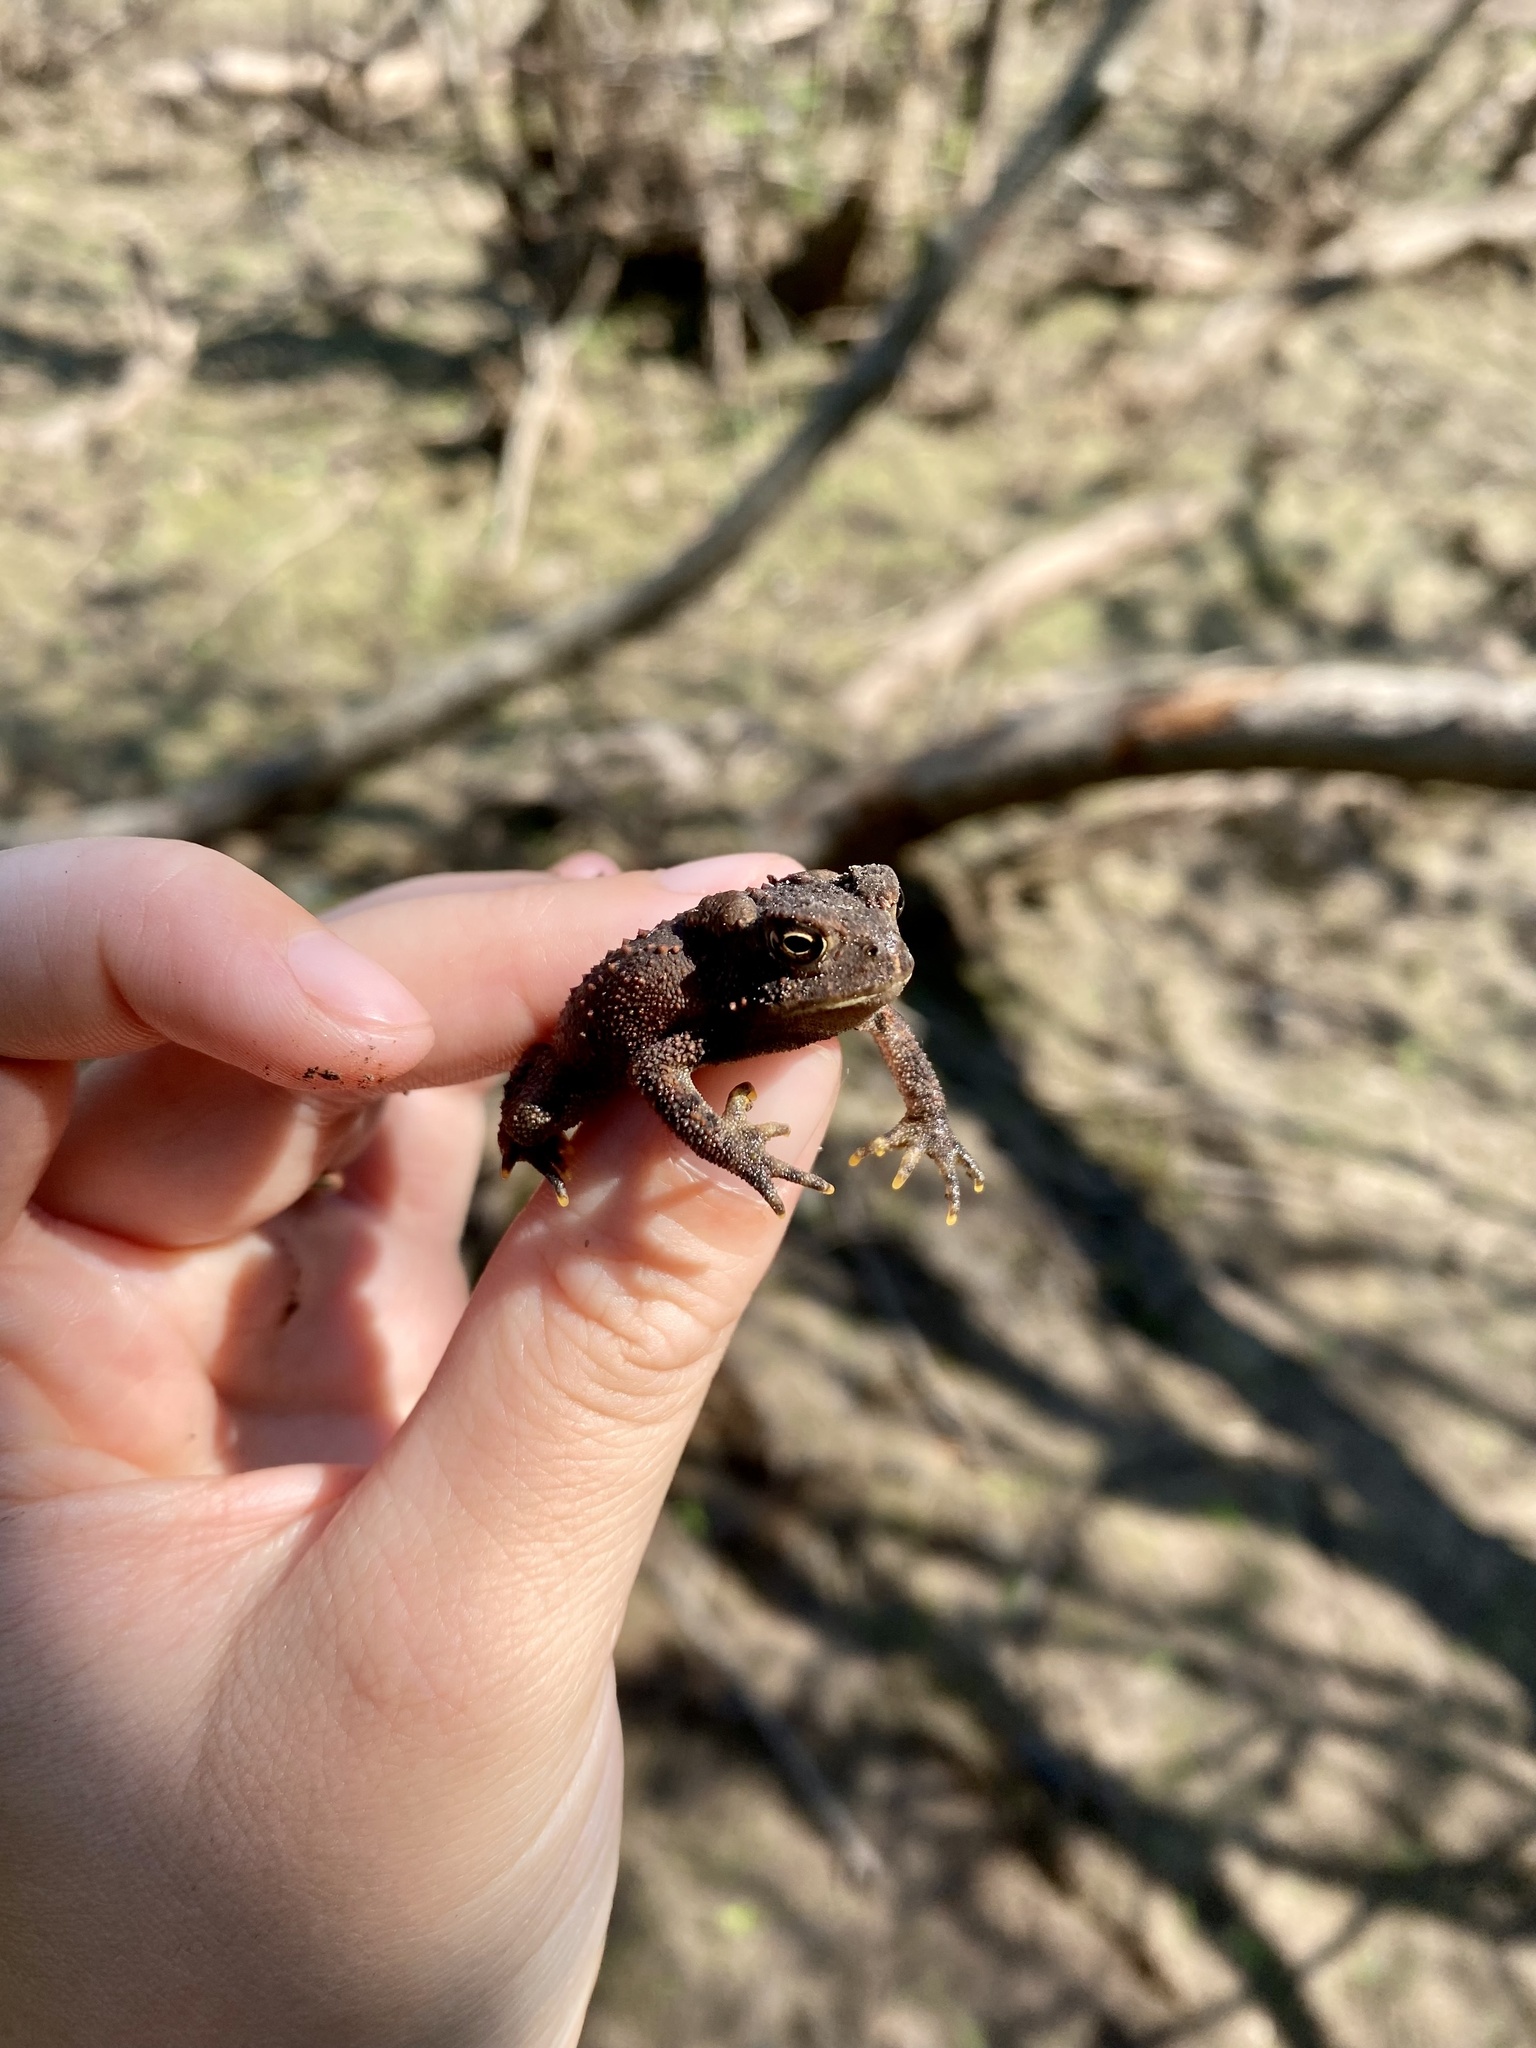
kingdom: Animalia
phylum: Chordata
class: Amphibia
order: Anura
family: Bufonidae
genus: Anaxyrus
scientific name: Anaxyrus americanus
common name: American toad
